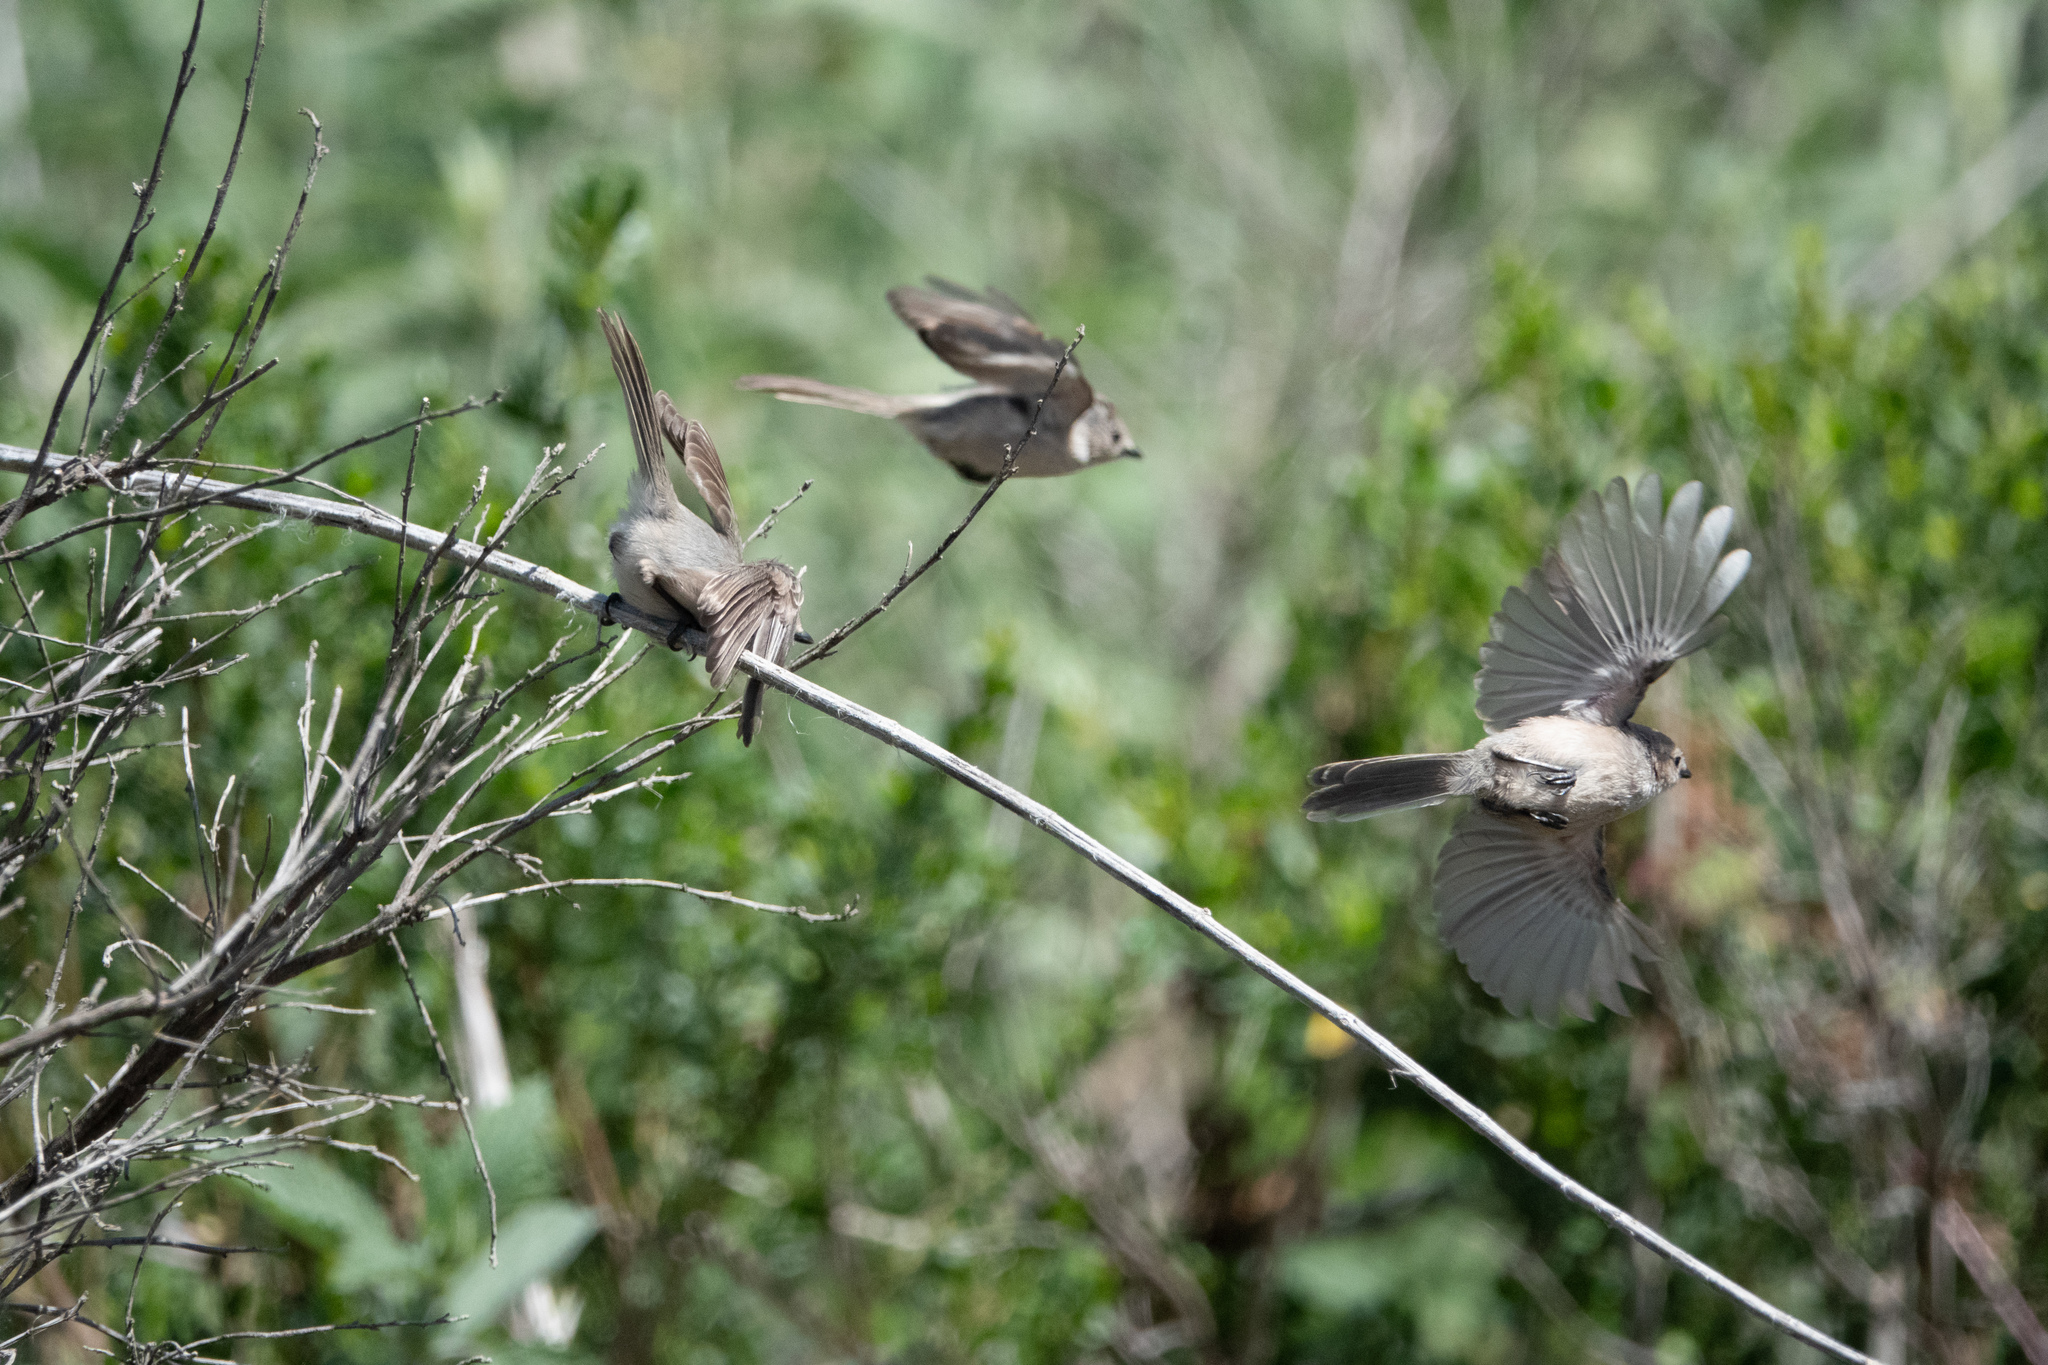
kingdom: Animalia
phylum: Chordata
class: Aves
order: Passeriformes
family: Aegithalidae
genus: Psaltriparus
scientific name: Psaltriparus minimus
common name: American bushtit
